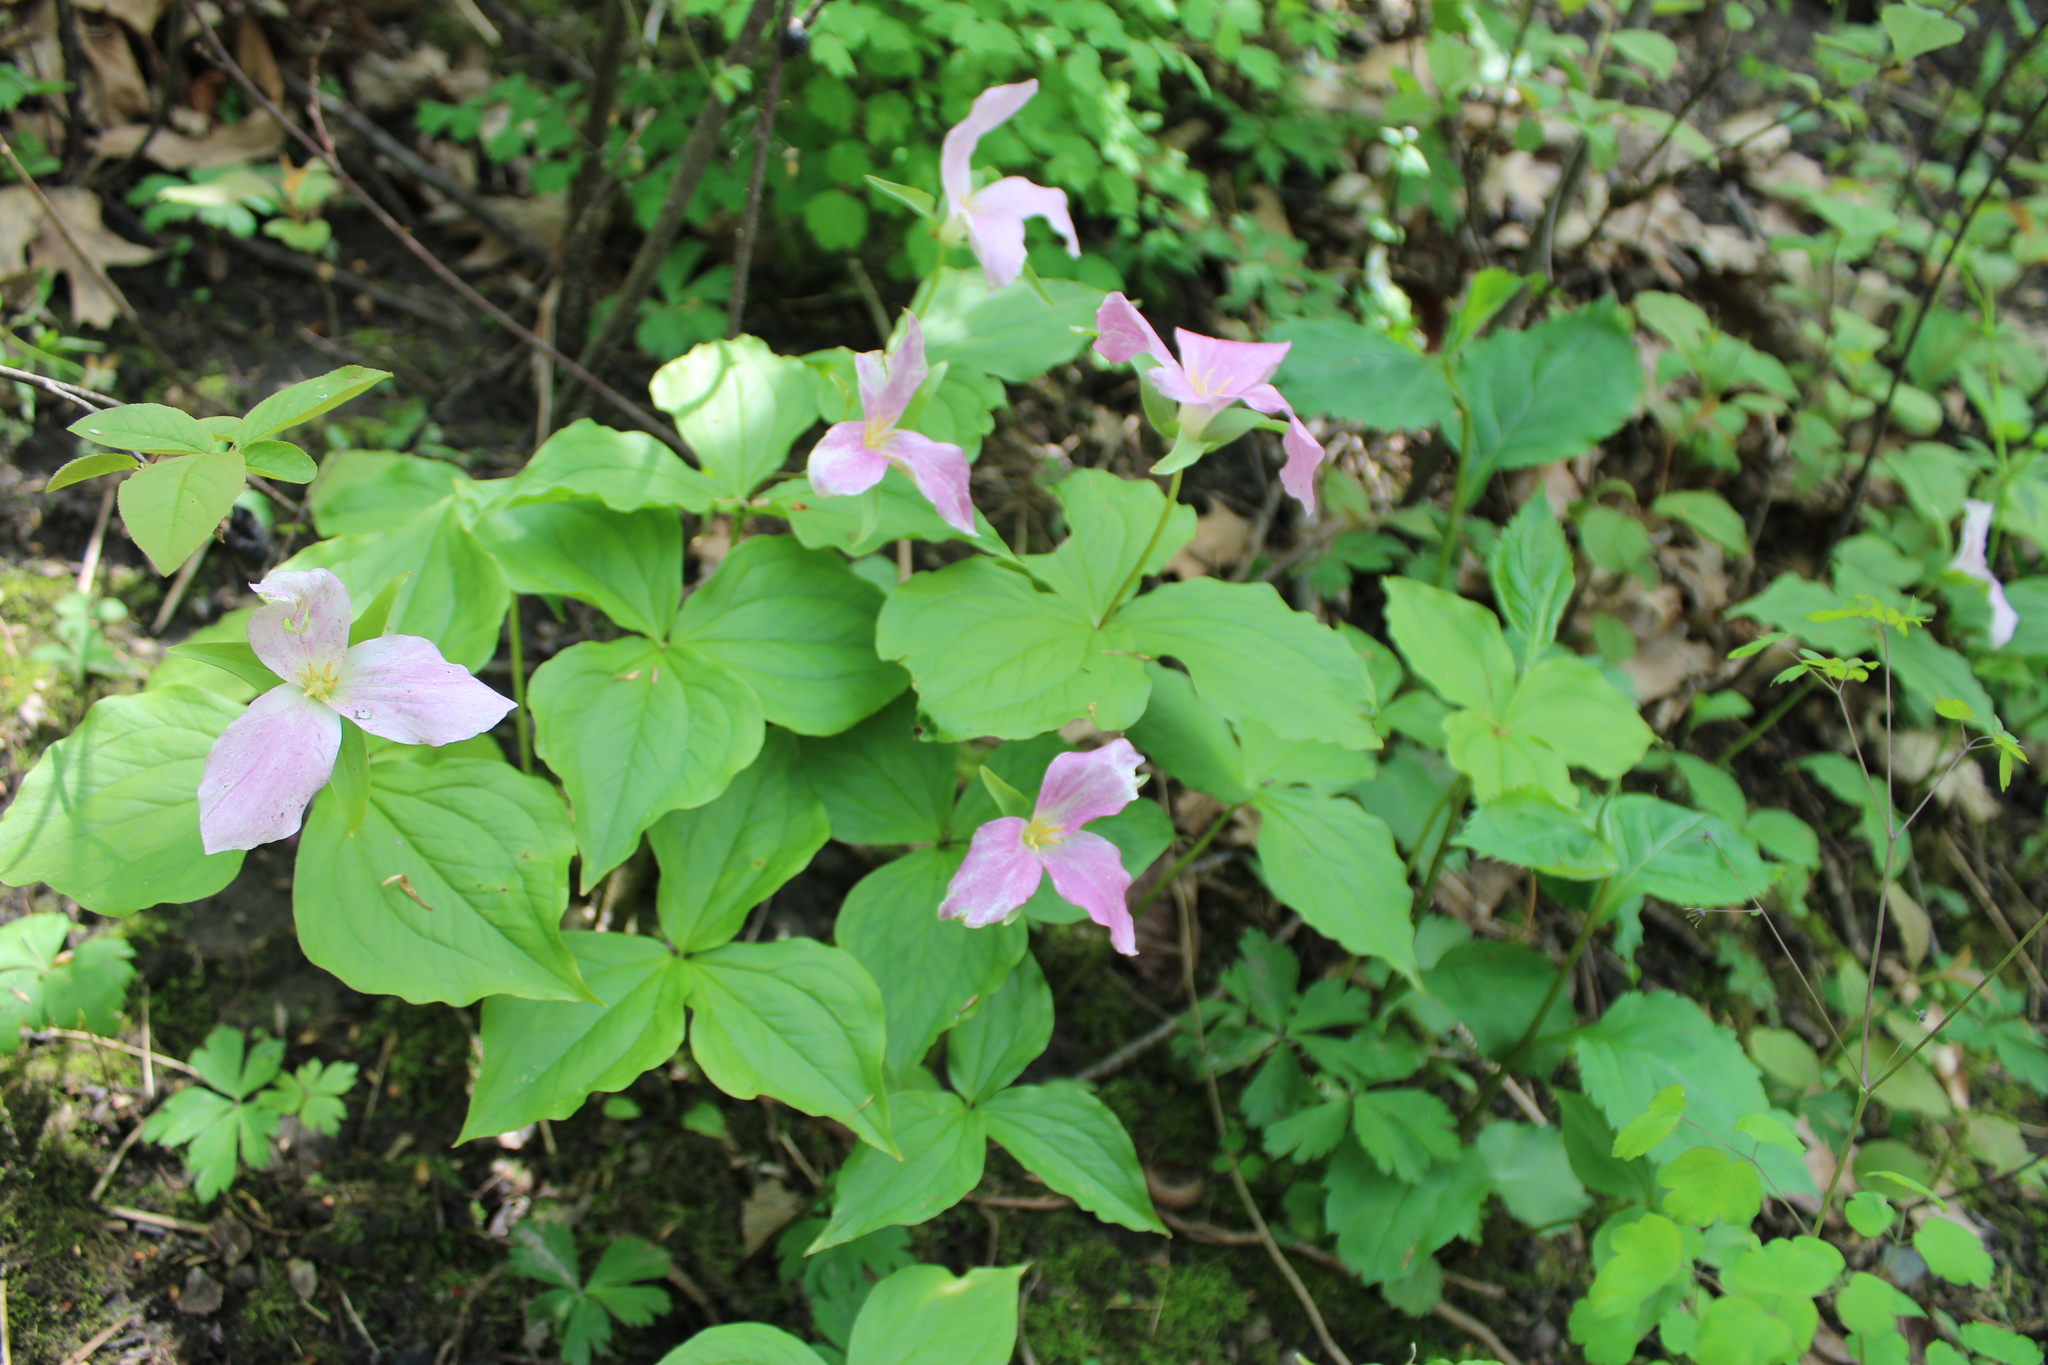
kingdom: Plantae
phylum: Tracheophyta
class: Liliopsida
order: Liliales
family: Melanthiaceae
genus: Trillium
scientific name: Trillium grandiflorum
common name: Great white trillium
